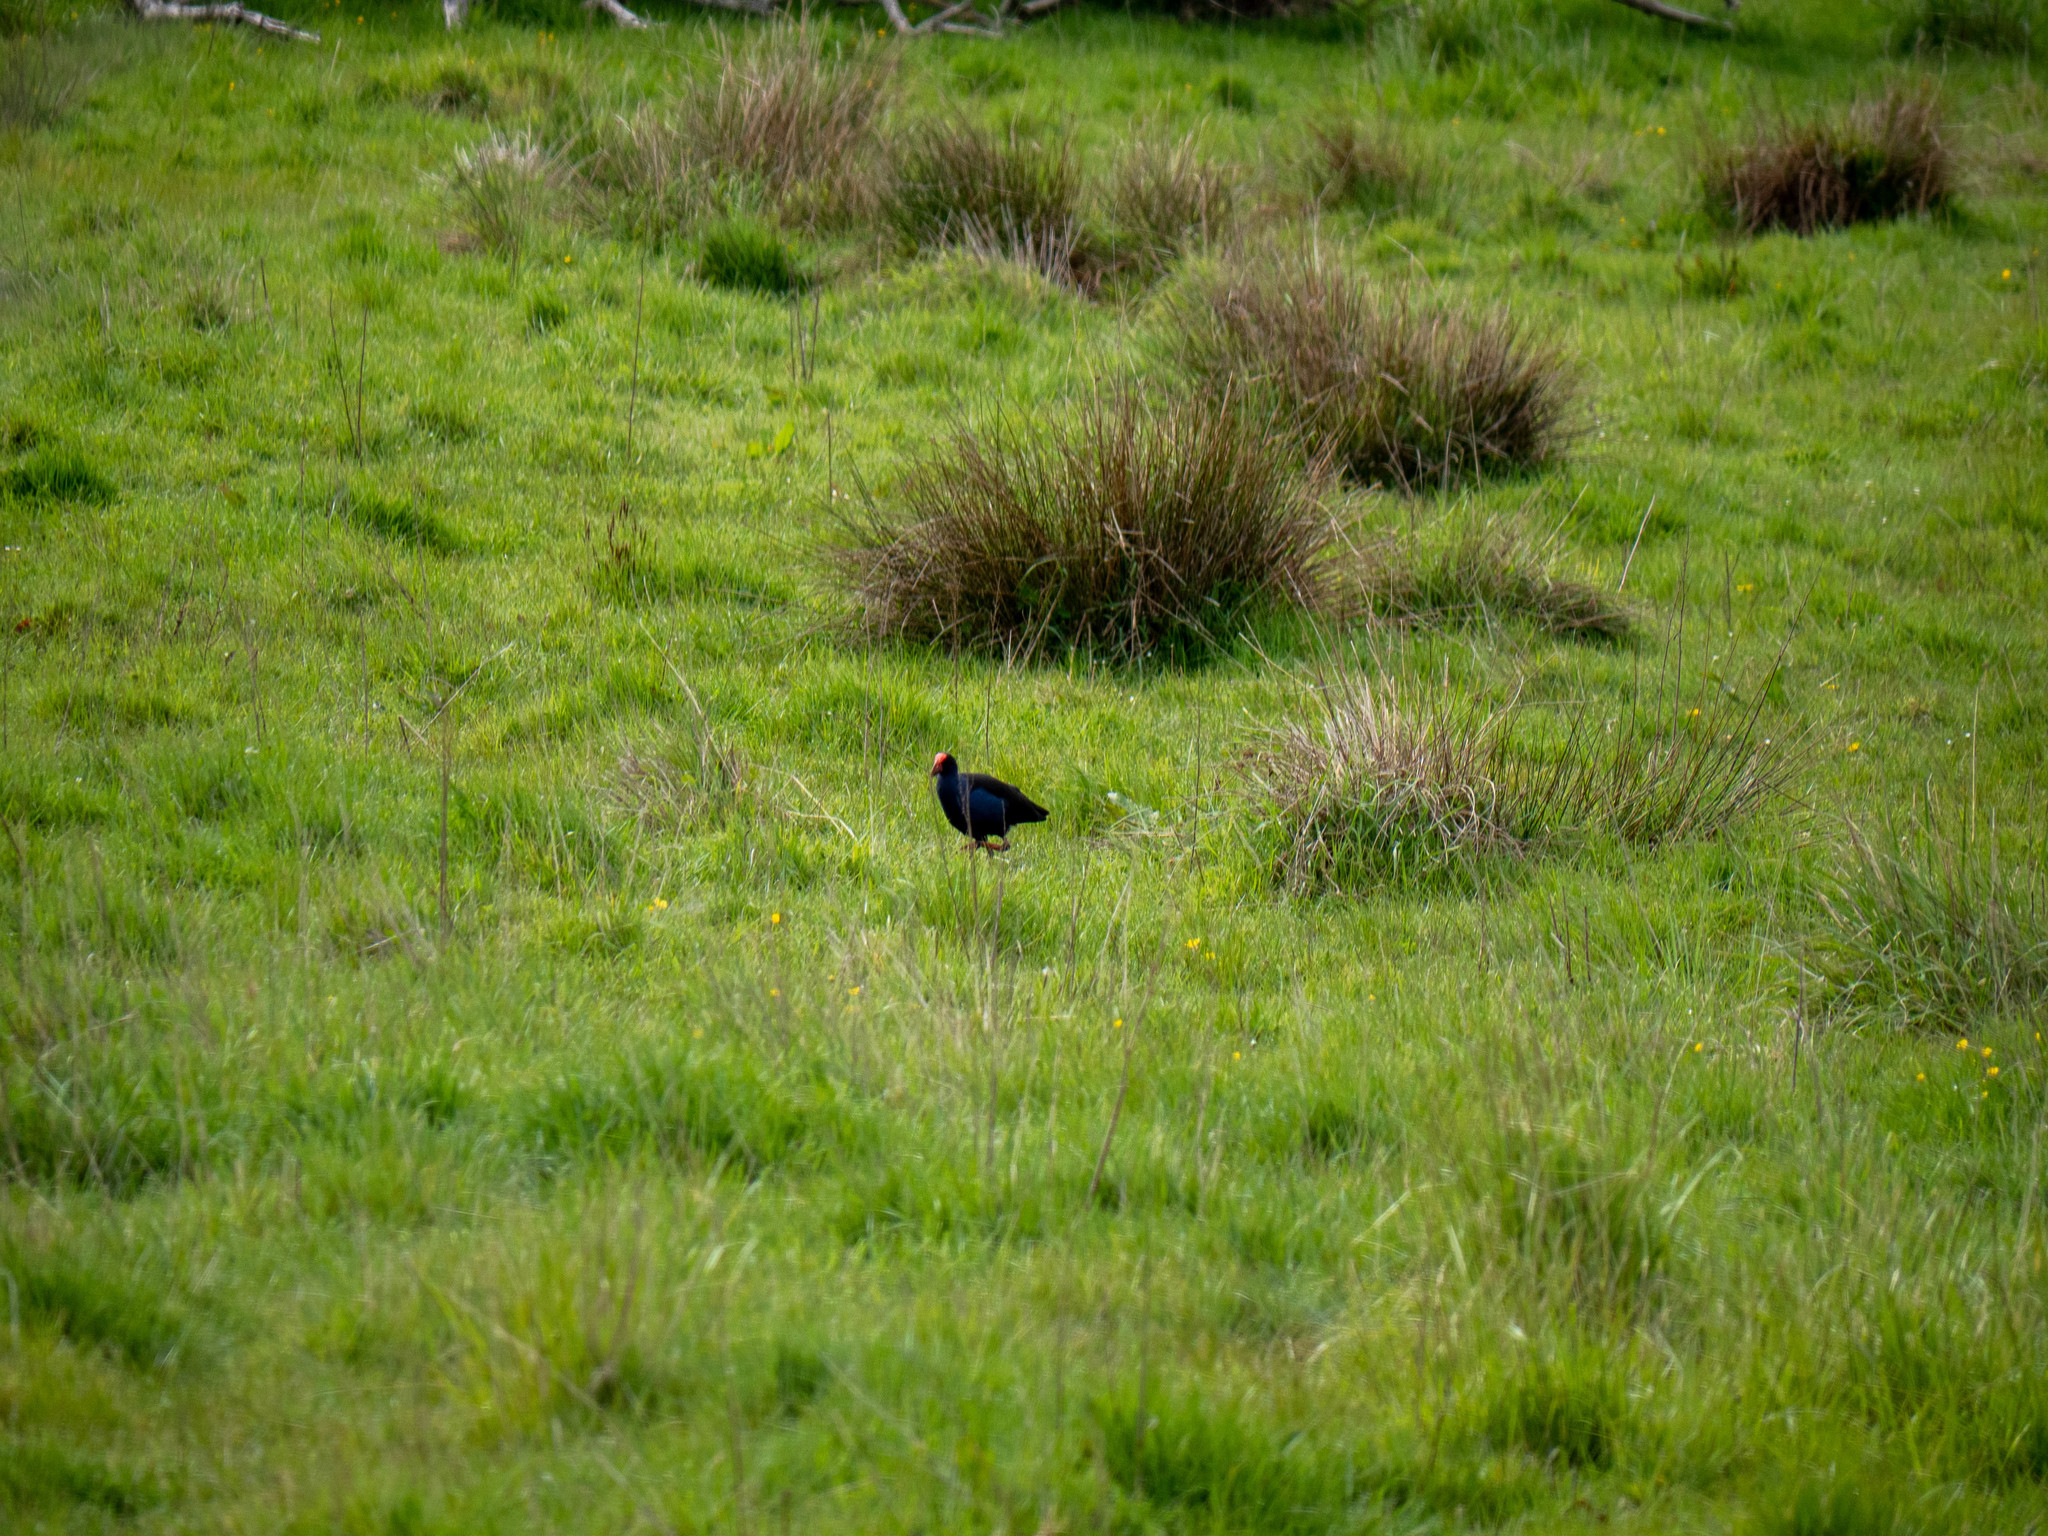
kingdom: Animalia
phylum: Chordata
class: Aves
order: Gruiformes
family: Rallidae
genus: Porphyrio
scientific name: Porphyrio melanotus
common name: Australasian swamphen
